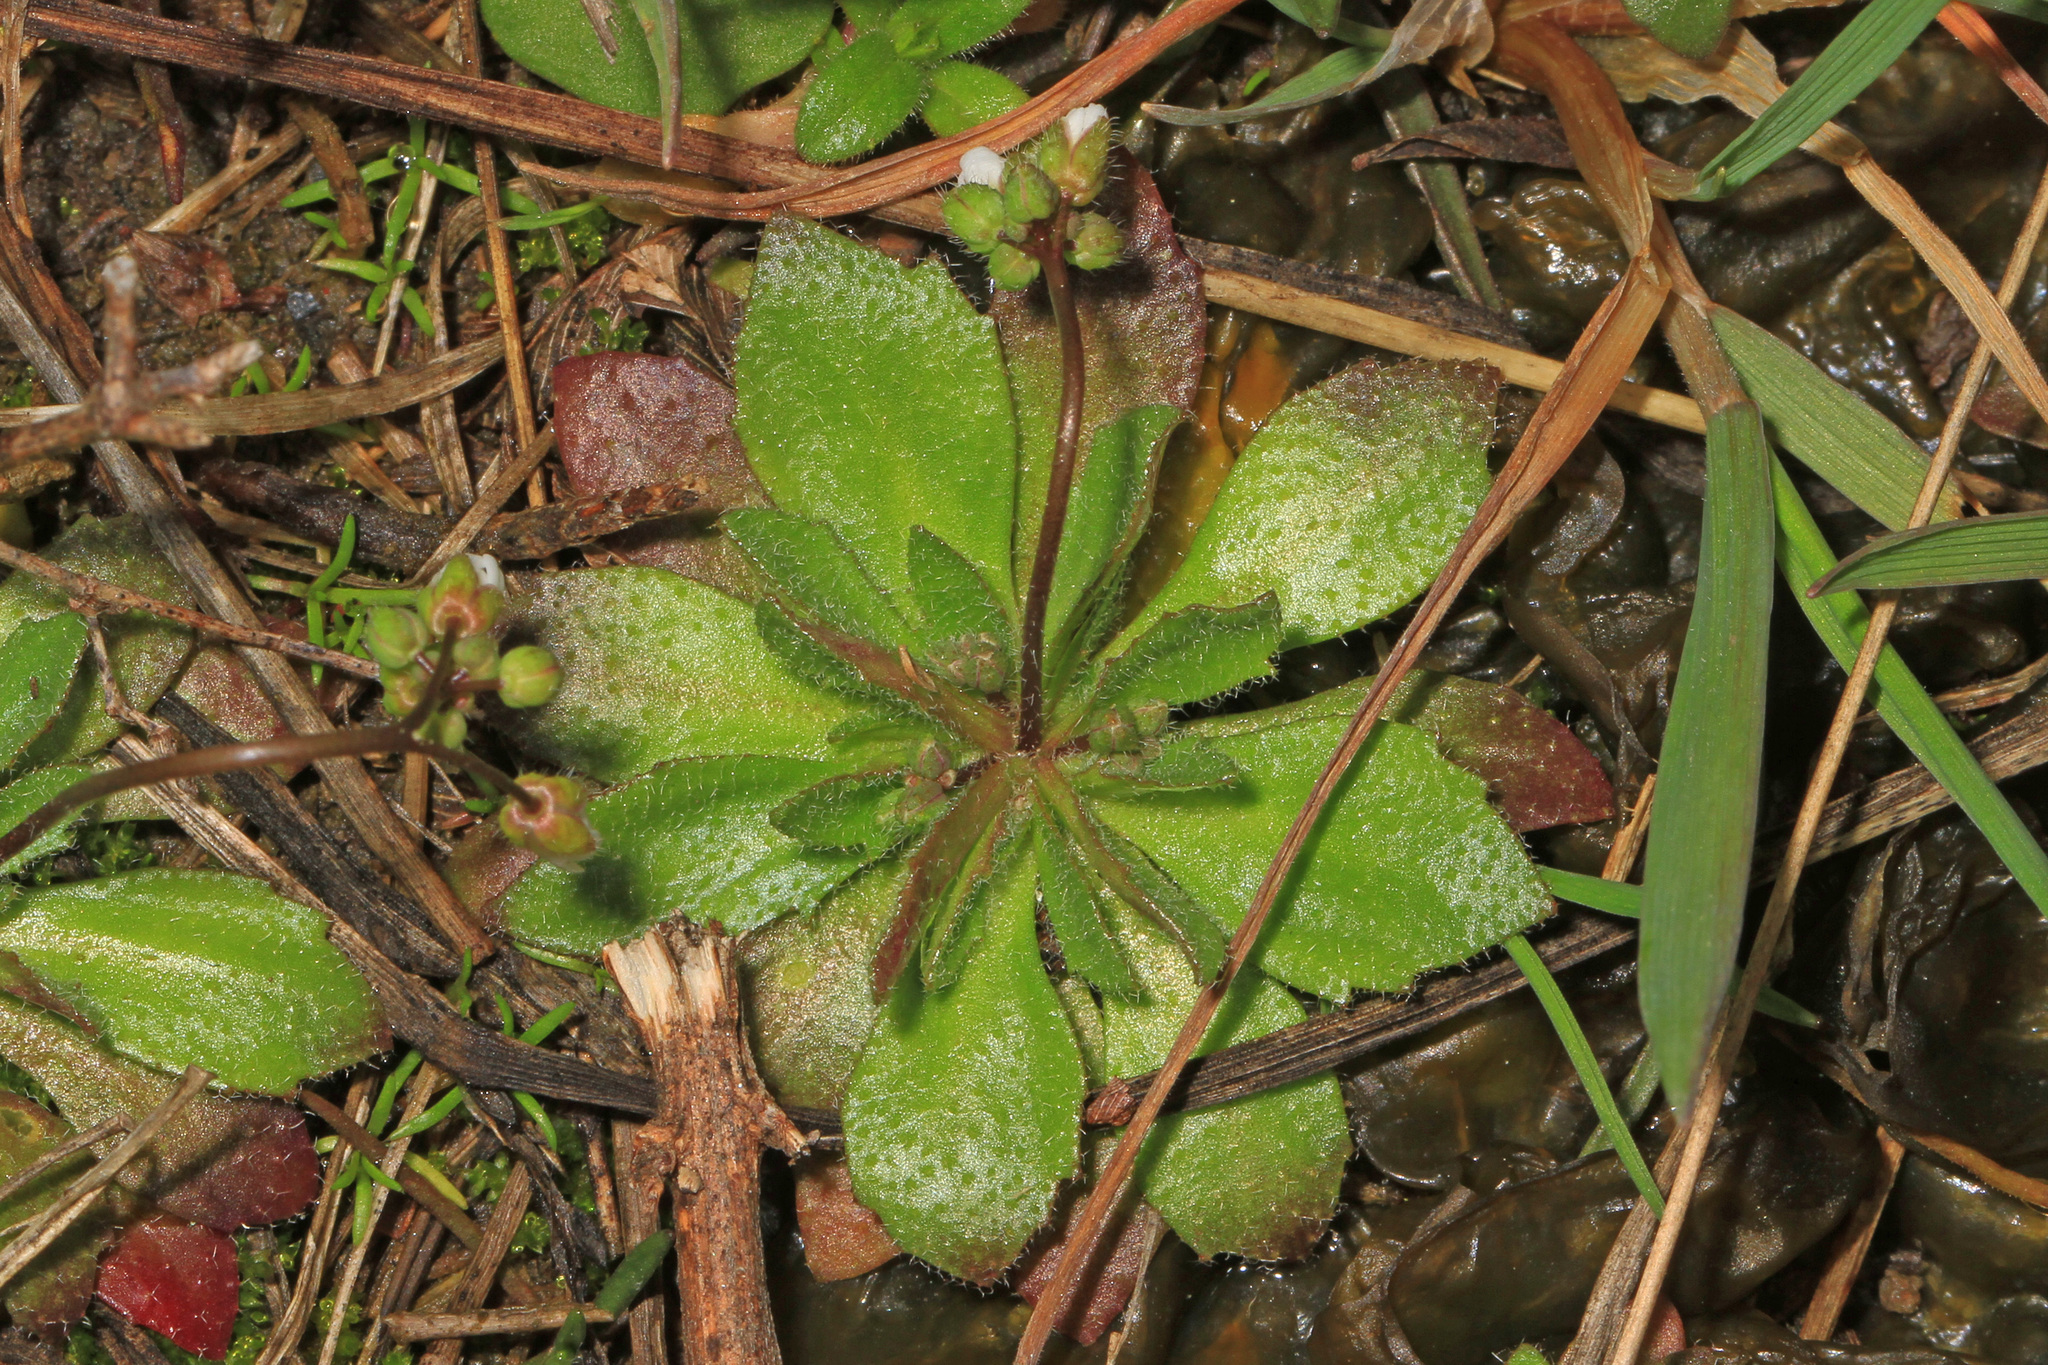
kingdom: Plantae
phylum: Tracheophyta
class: Magnoliopsida
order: Brassicales
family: Brassicaceae
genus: Draba
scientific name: Draba verna
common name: Spring draba
